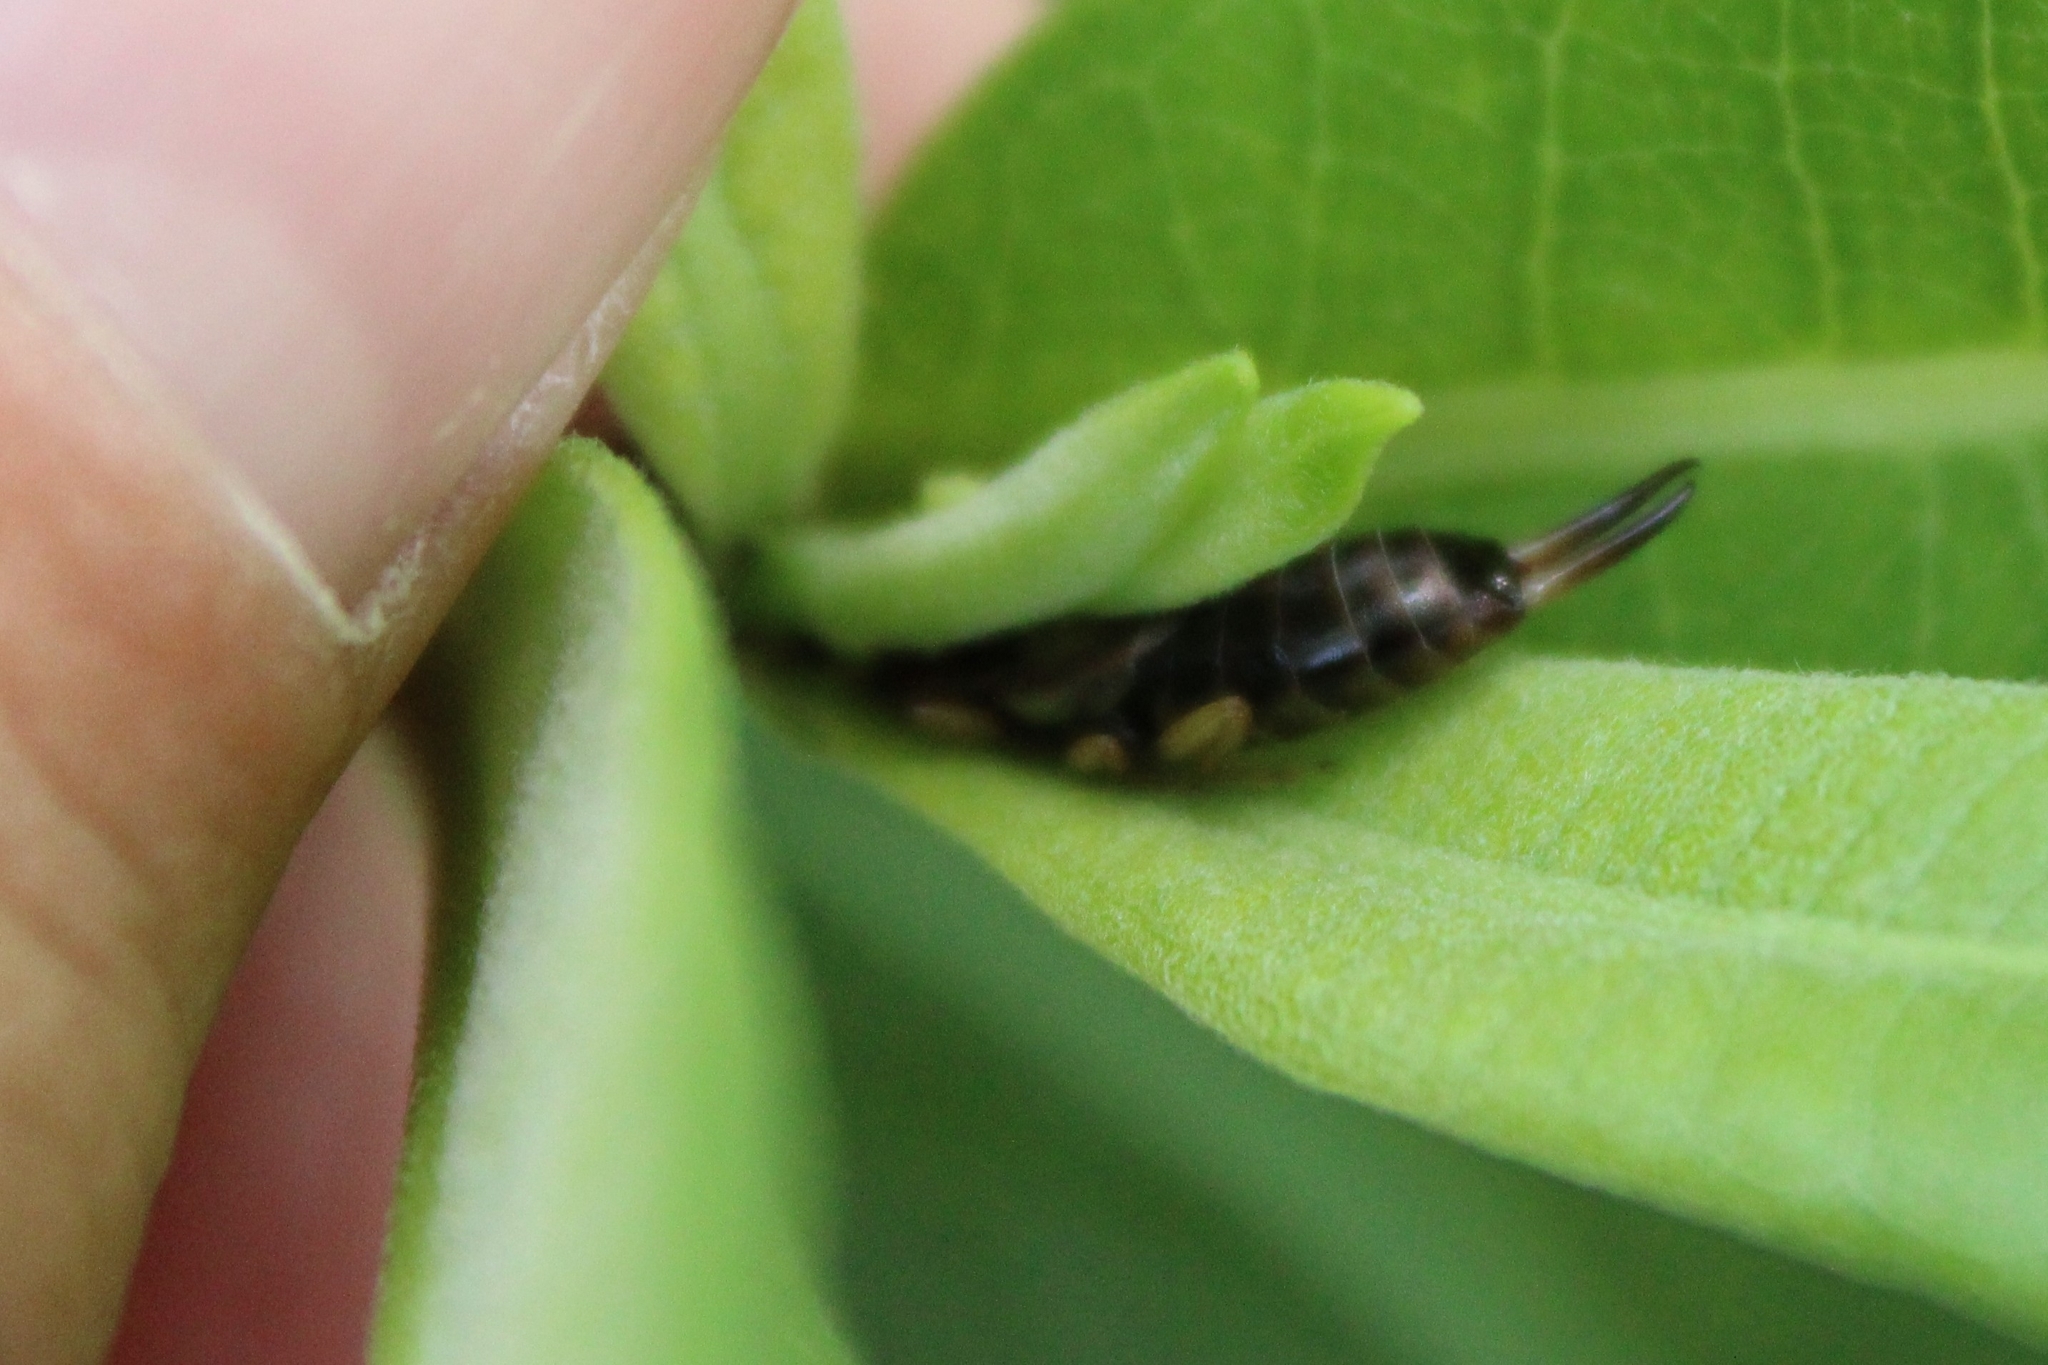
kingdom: Animalia
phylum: Arthropoda
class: Insecta
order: Dermaptera
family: Forficulidae
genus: Forficula
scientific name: Forficula
